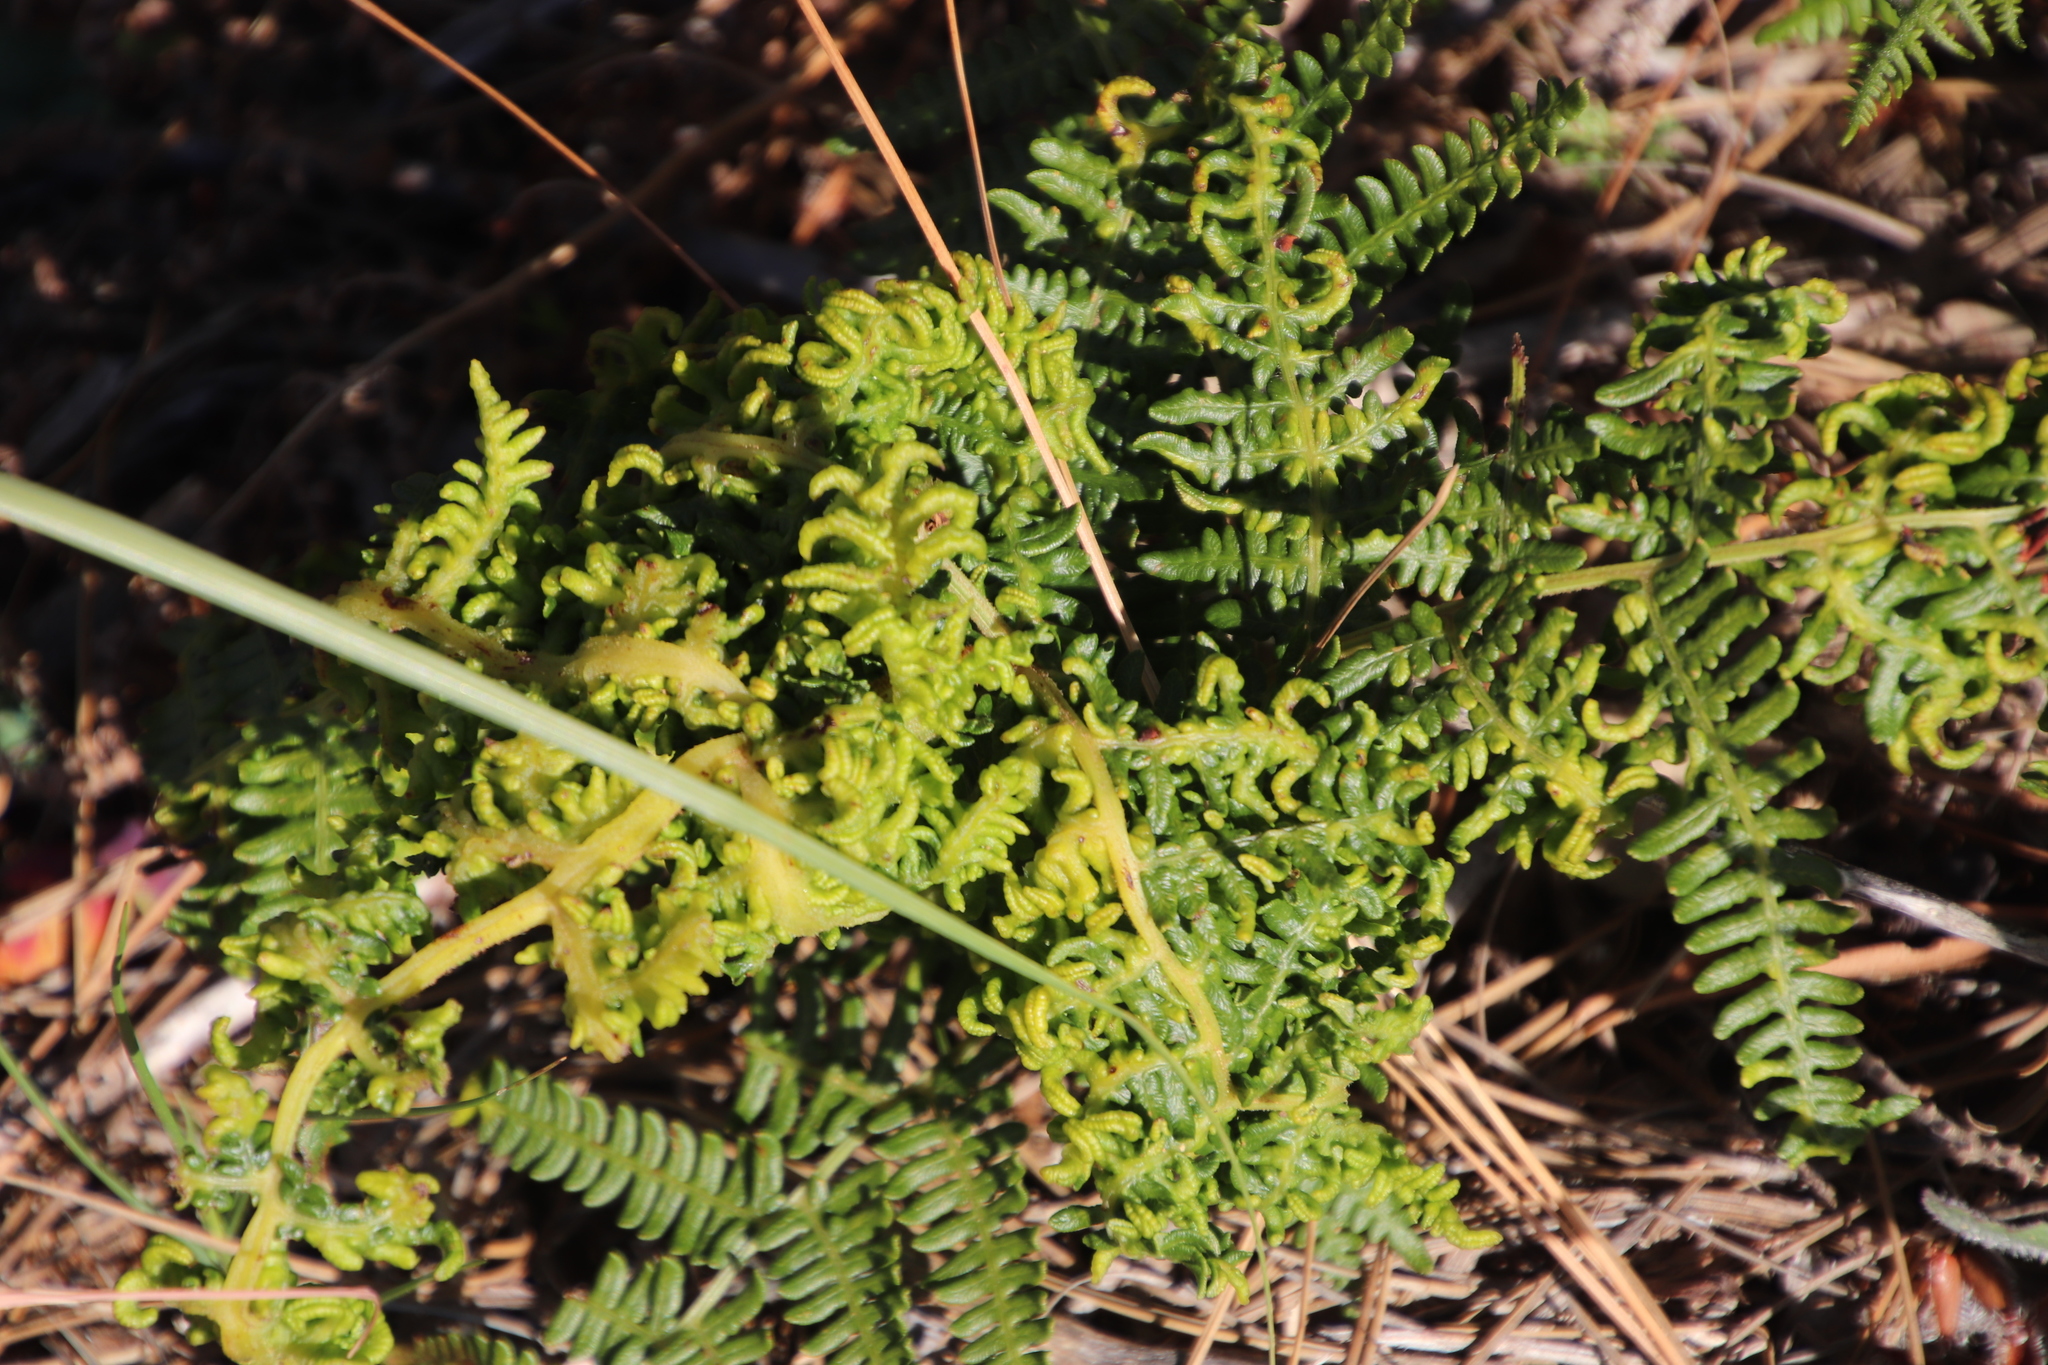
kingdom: Animalia
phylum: Arthropoda
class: Arachnida
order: Trombidiformes
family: Eriophyidae
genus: Eriophyes
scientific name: Eriophyes
